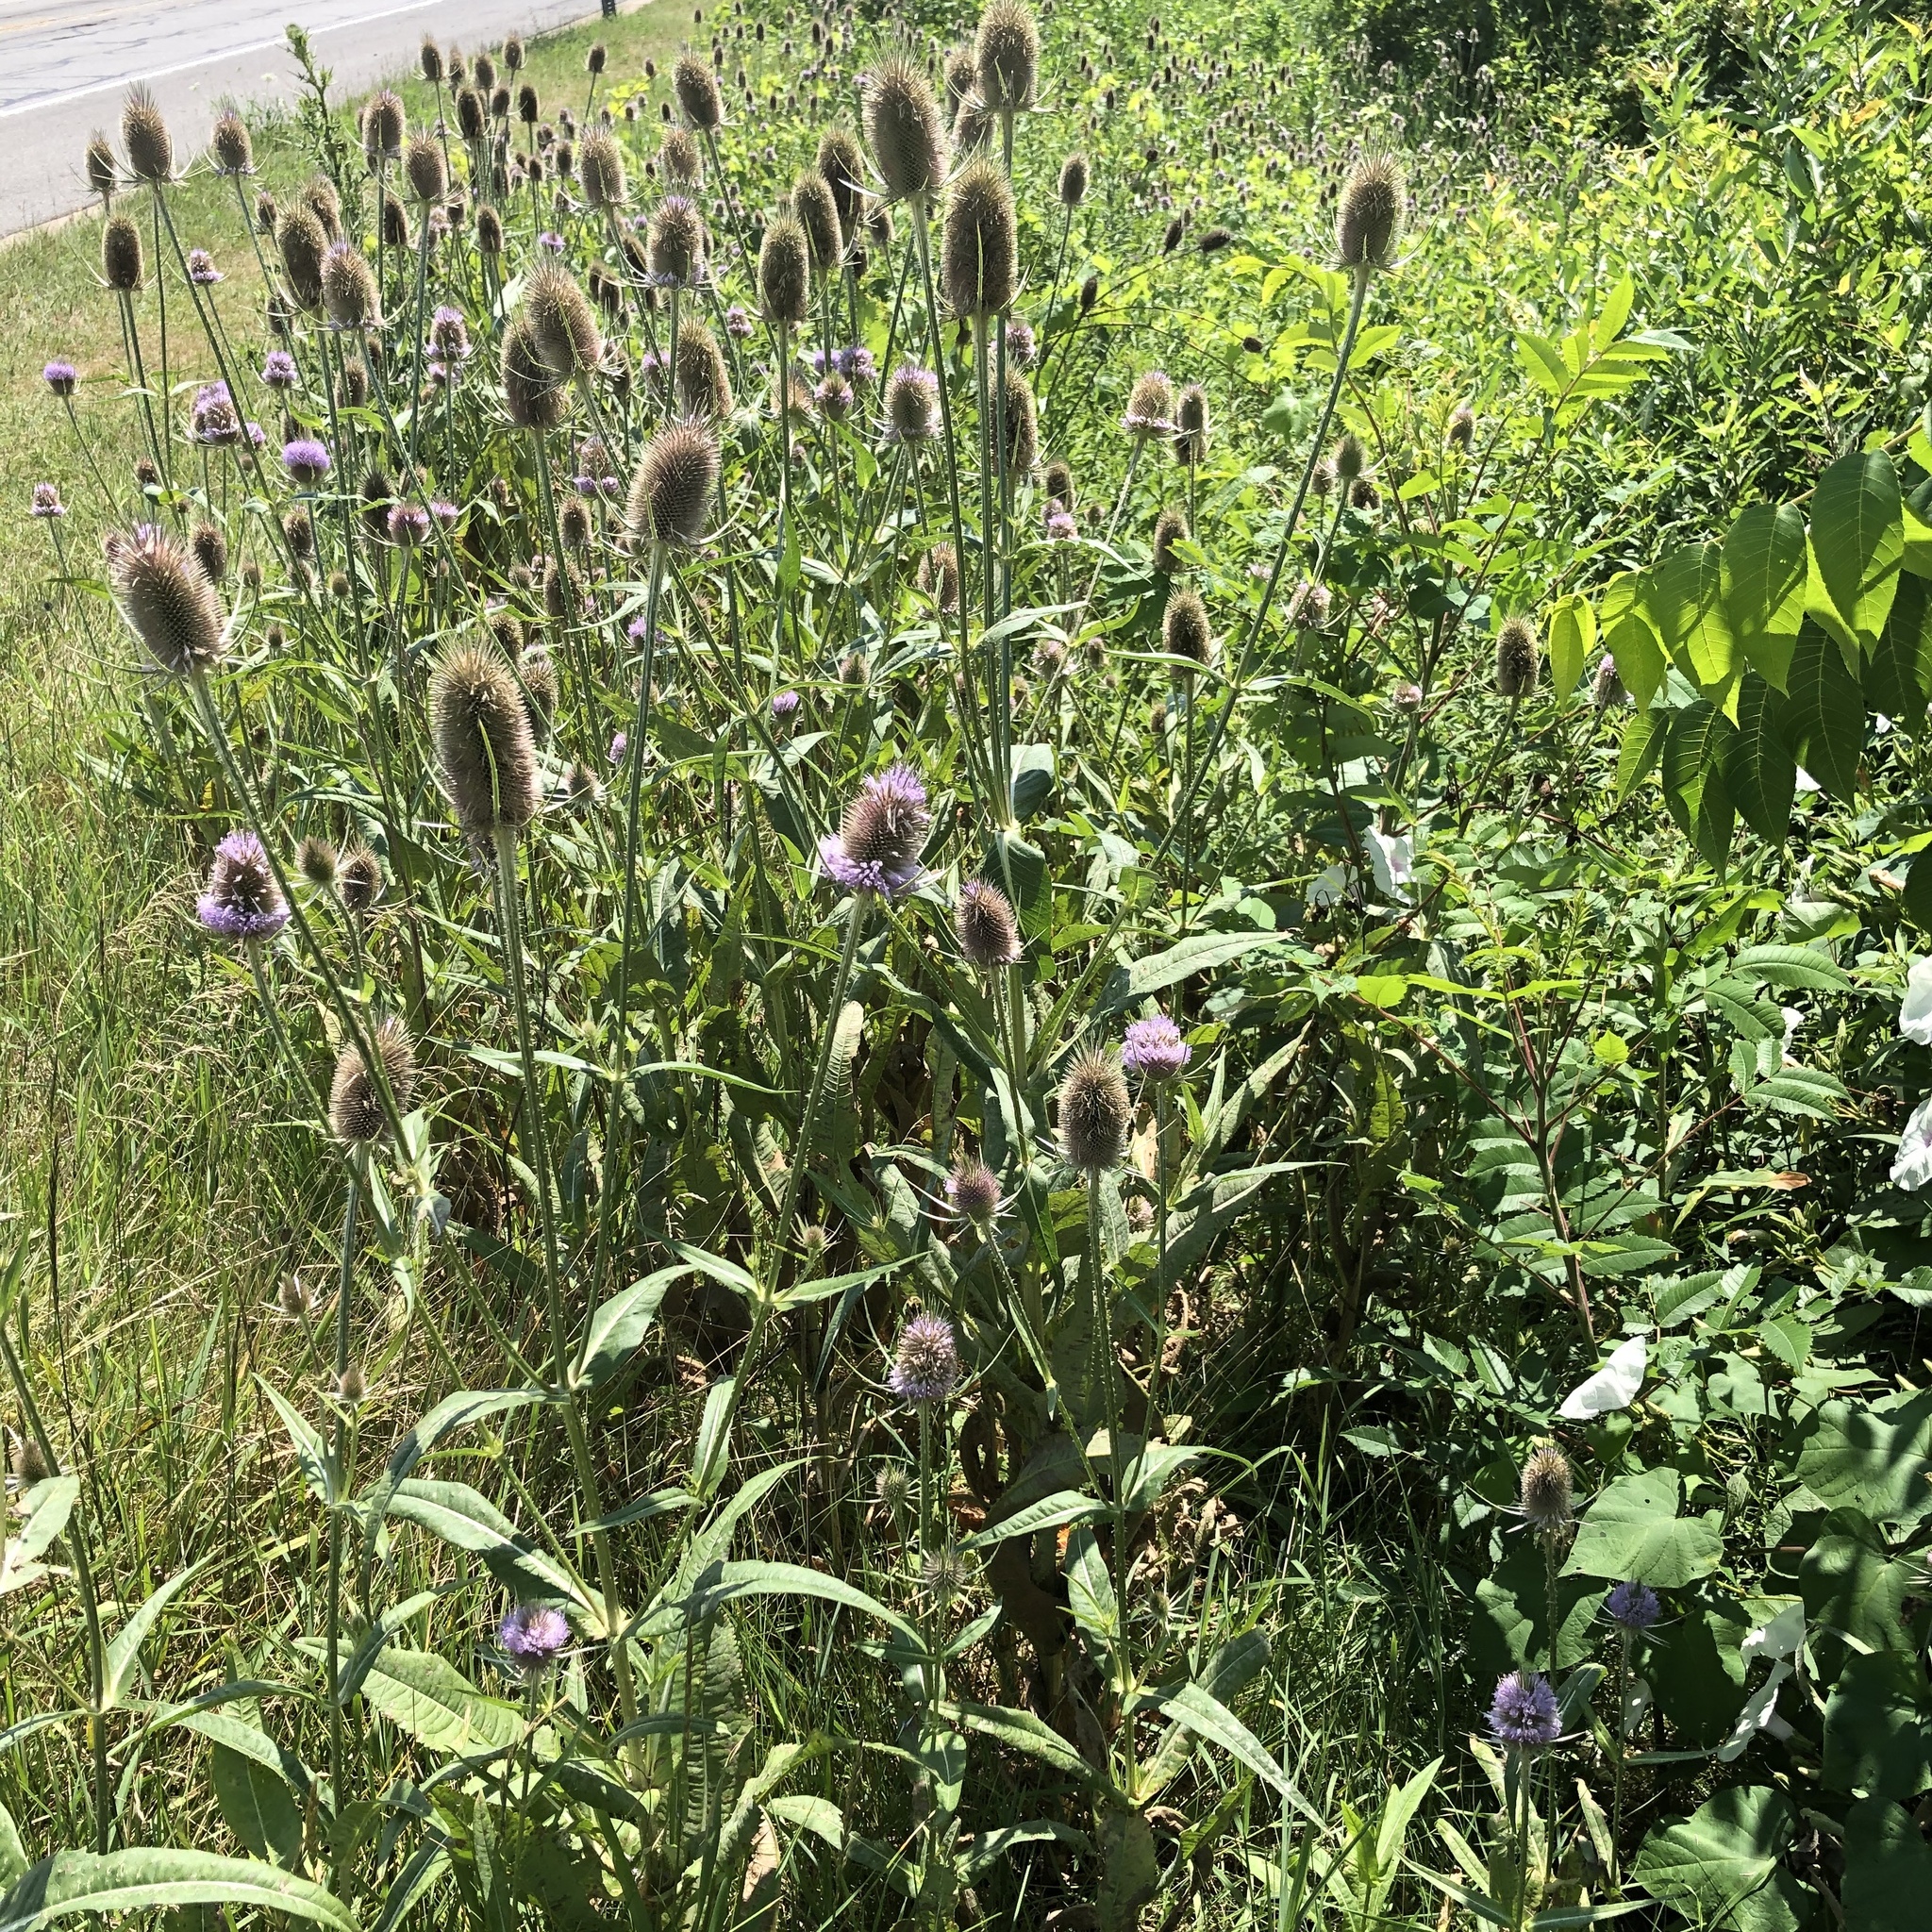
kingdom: Plantae
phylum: Tracheophyta
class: Magnoliopsida
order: Dipsacales
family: Caprifoliaceae
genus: Dipsacus
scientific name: Dipsacus fullonum
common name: Teasel
